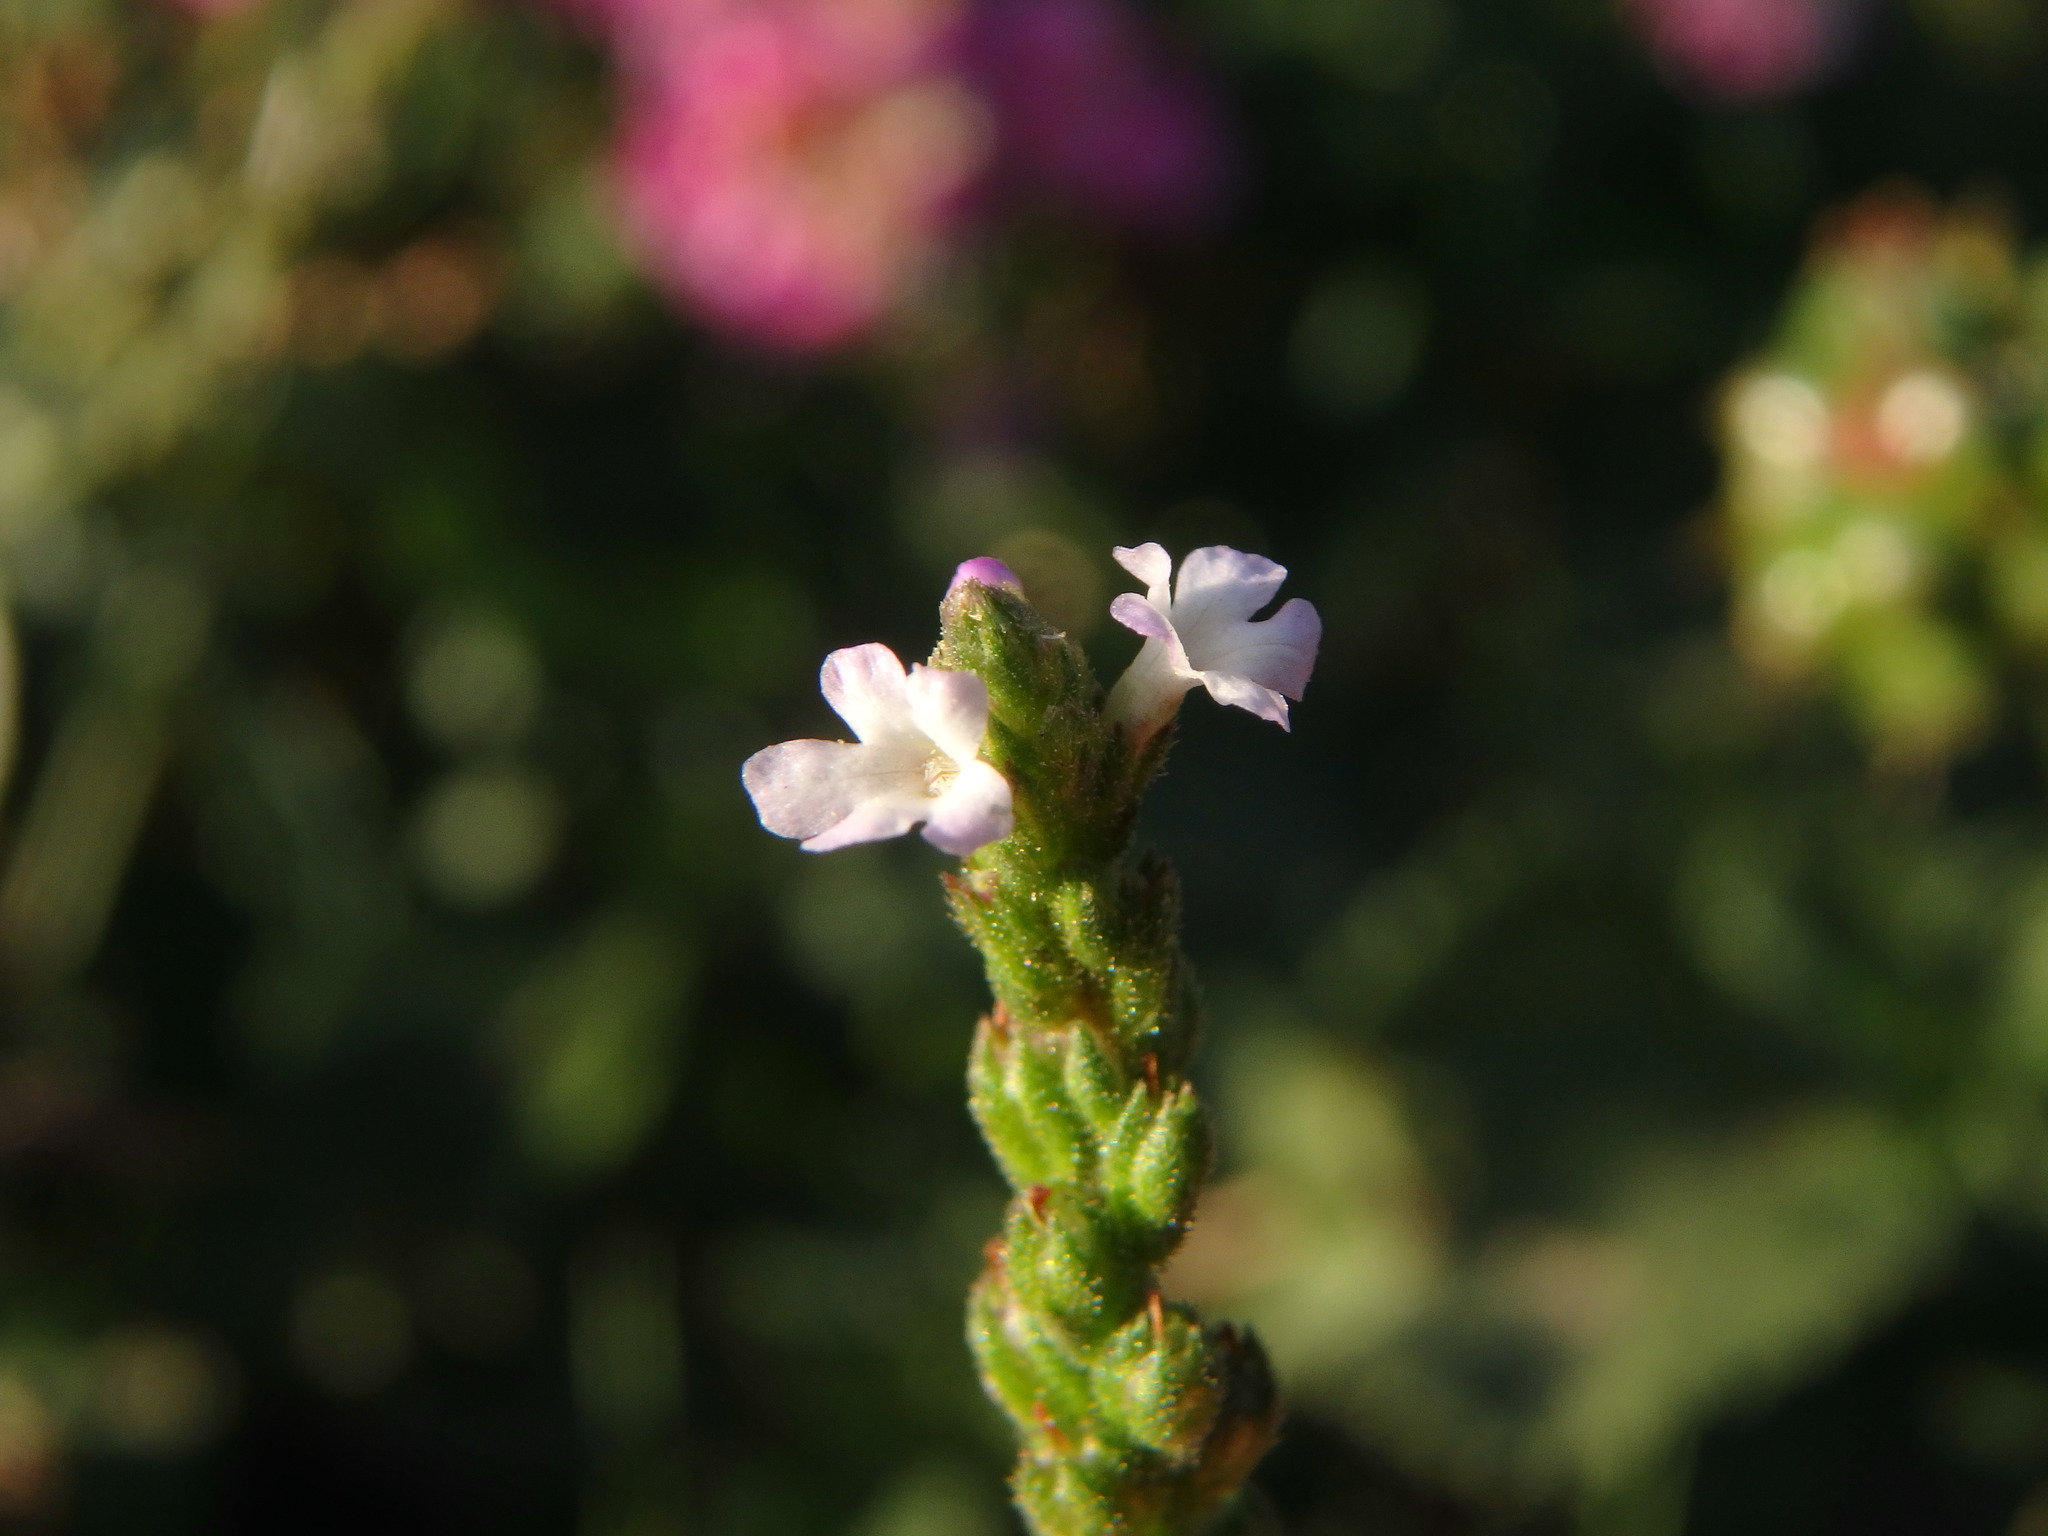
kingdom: Plantae
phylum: Tracheophyta
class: Magnoliopsida
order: Lamiales
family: Verbenaceae
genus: Verbena
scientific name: Verbena officinalis
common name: Vervain
